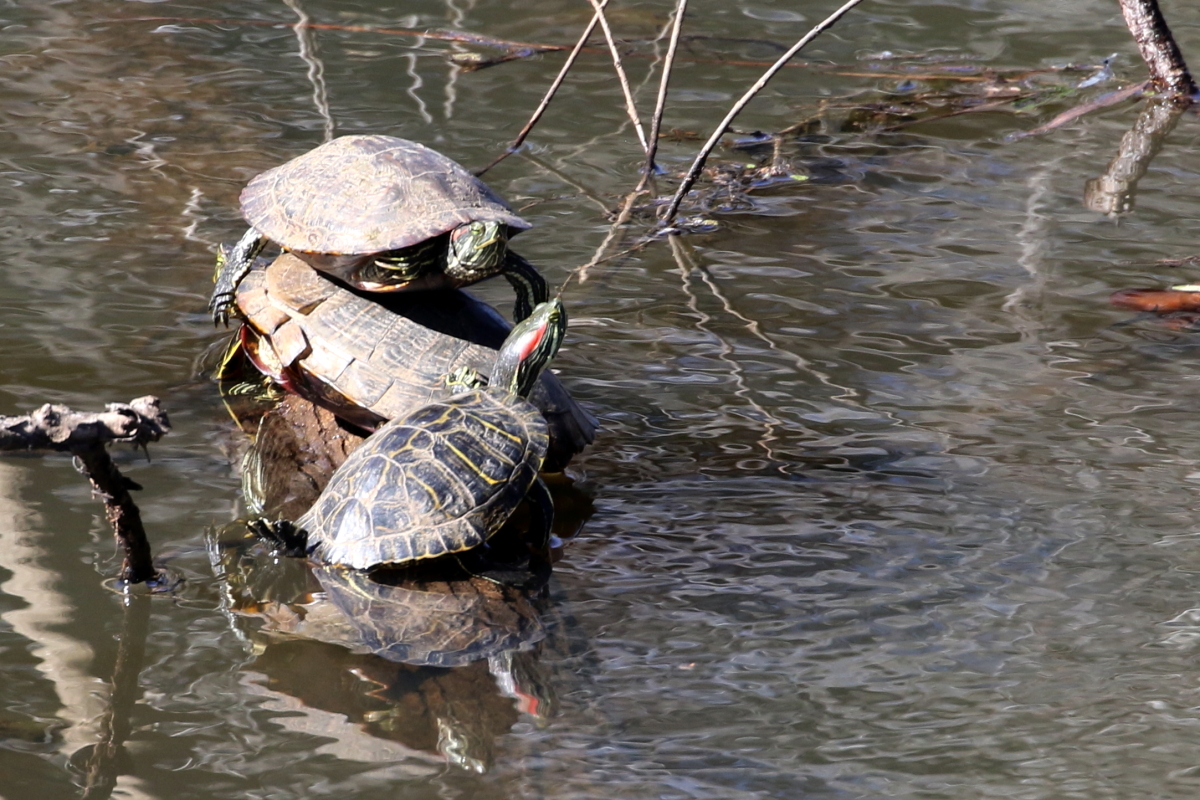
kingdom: Animalia
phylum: Chordata
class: Testudines
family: Emydidae
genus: Trachemys
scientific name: Trachemys scripta
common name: Slider
